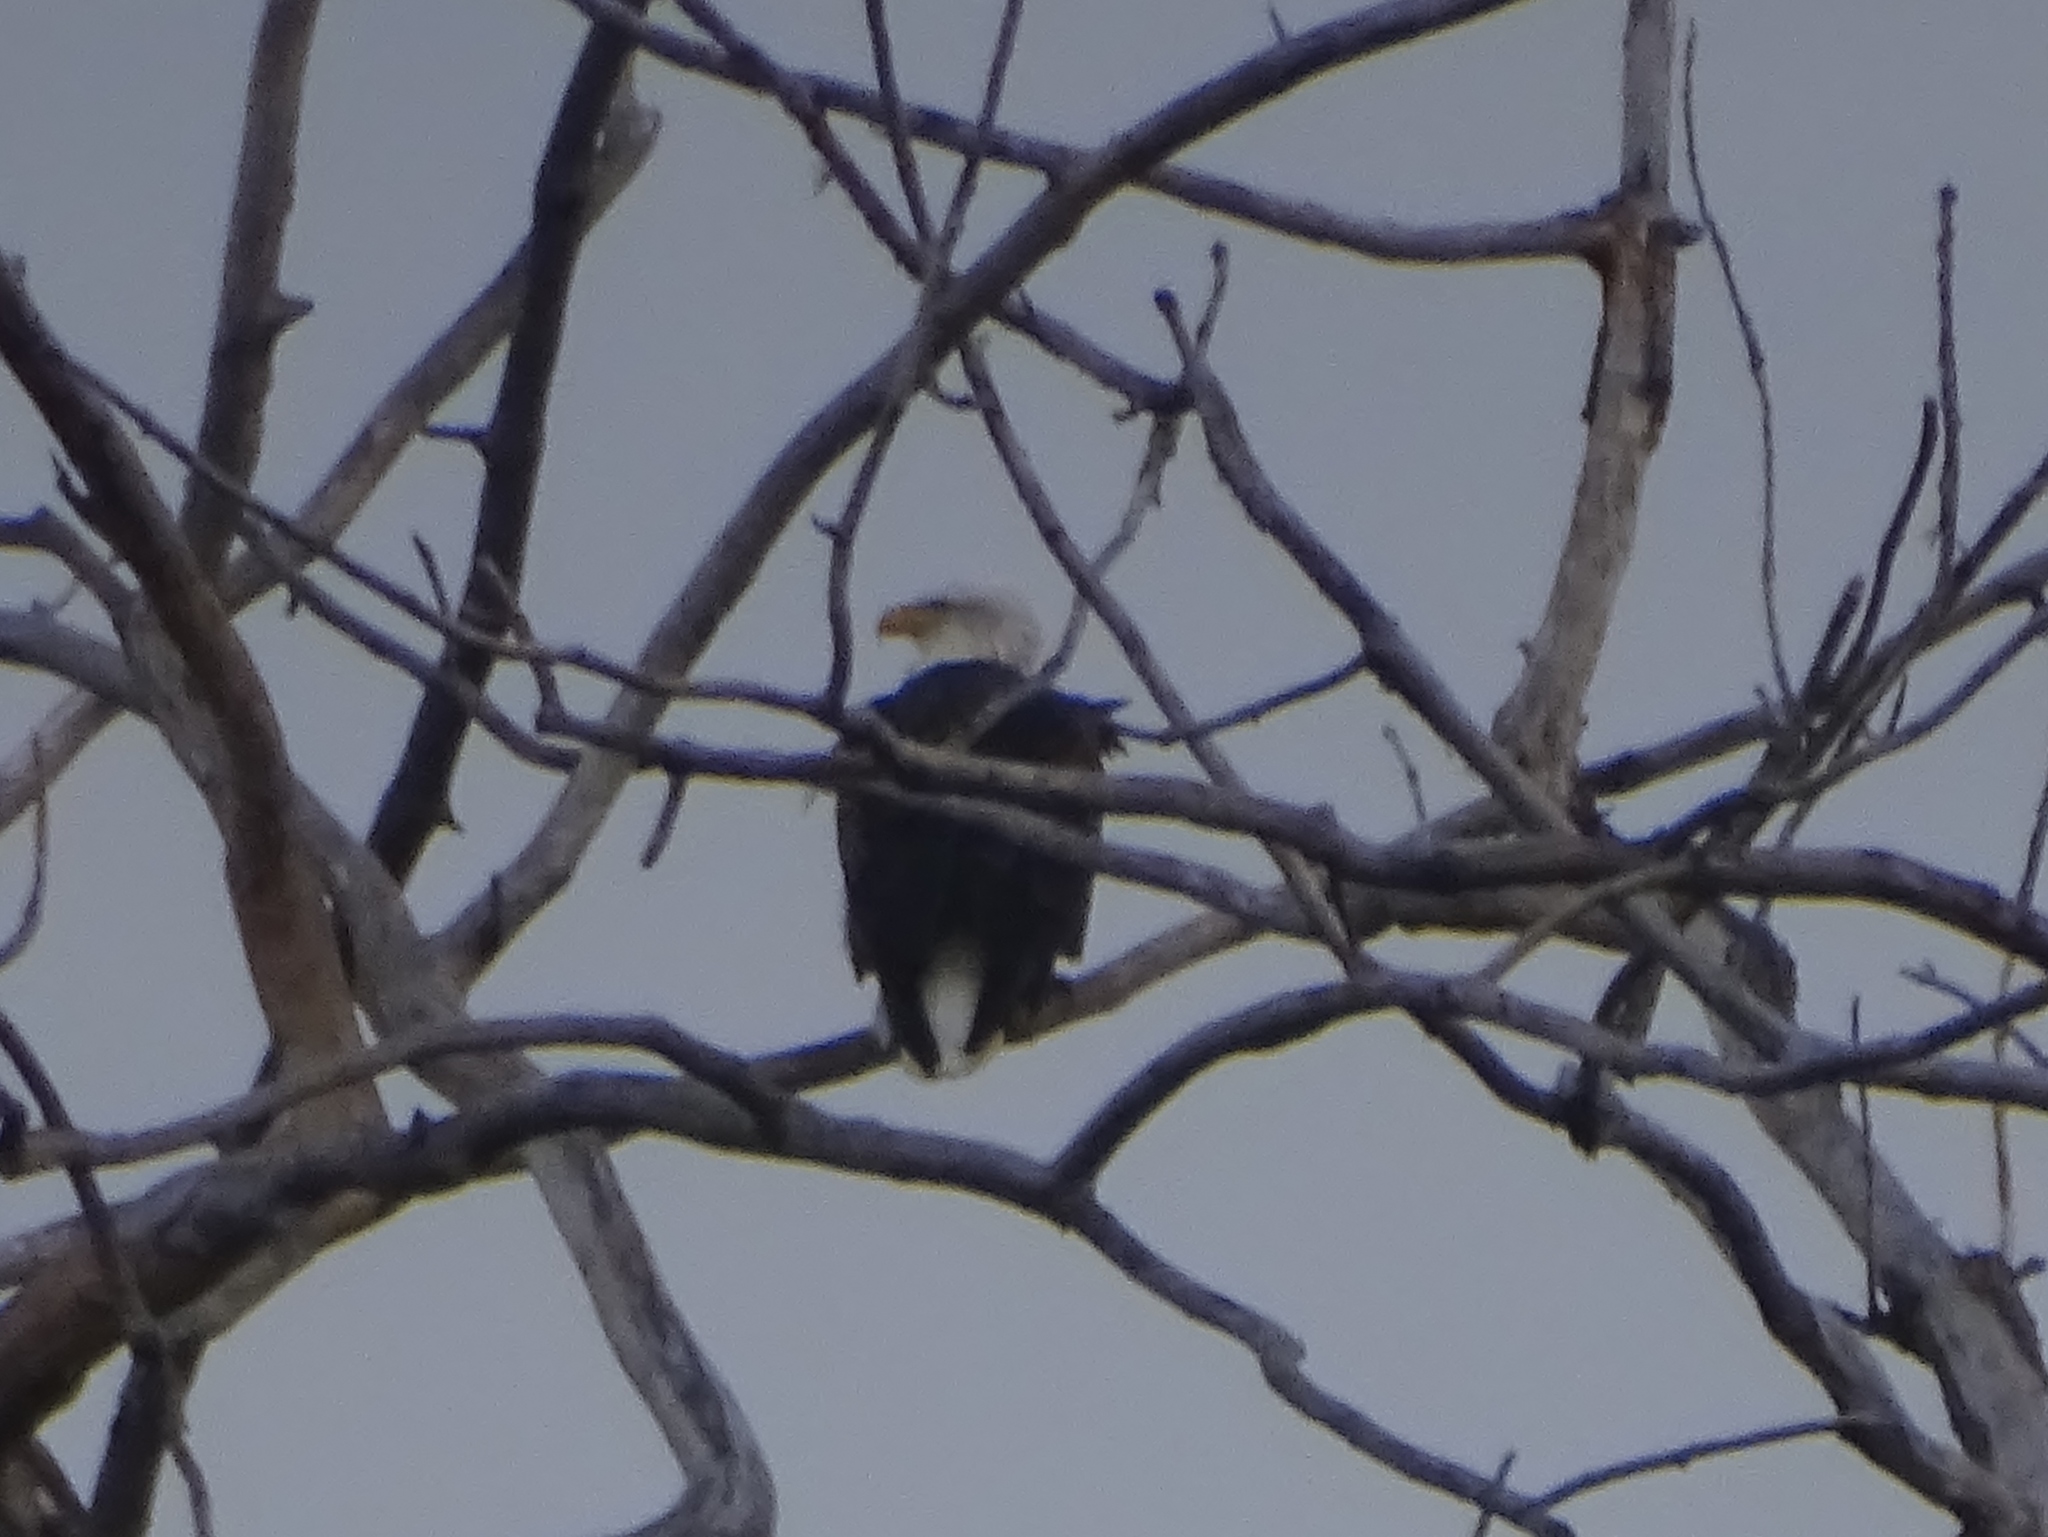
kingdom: Animalia
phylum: Chordata
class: Aves
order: Accipitriformes
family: Accipitridae
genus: Haliaeetus
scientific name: Haliaeetus leucocephalus
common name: Bald eagle
